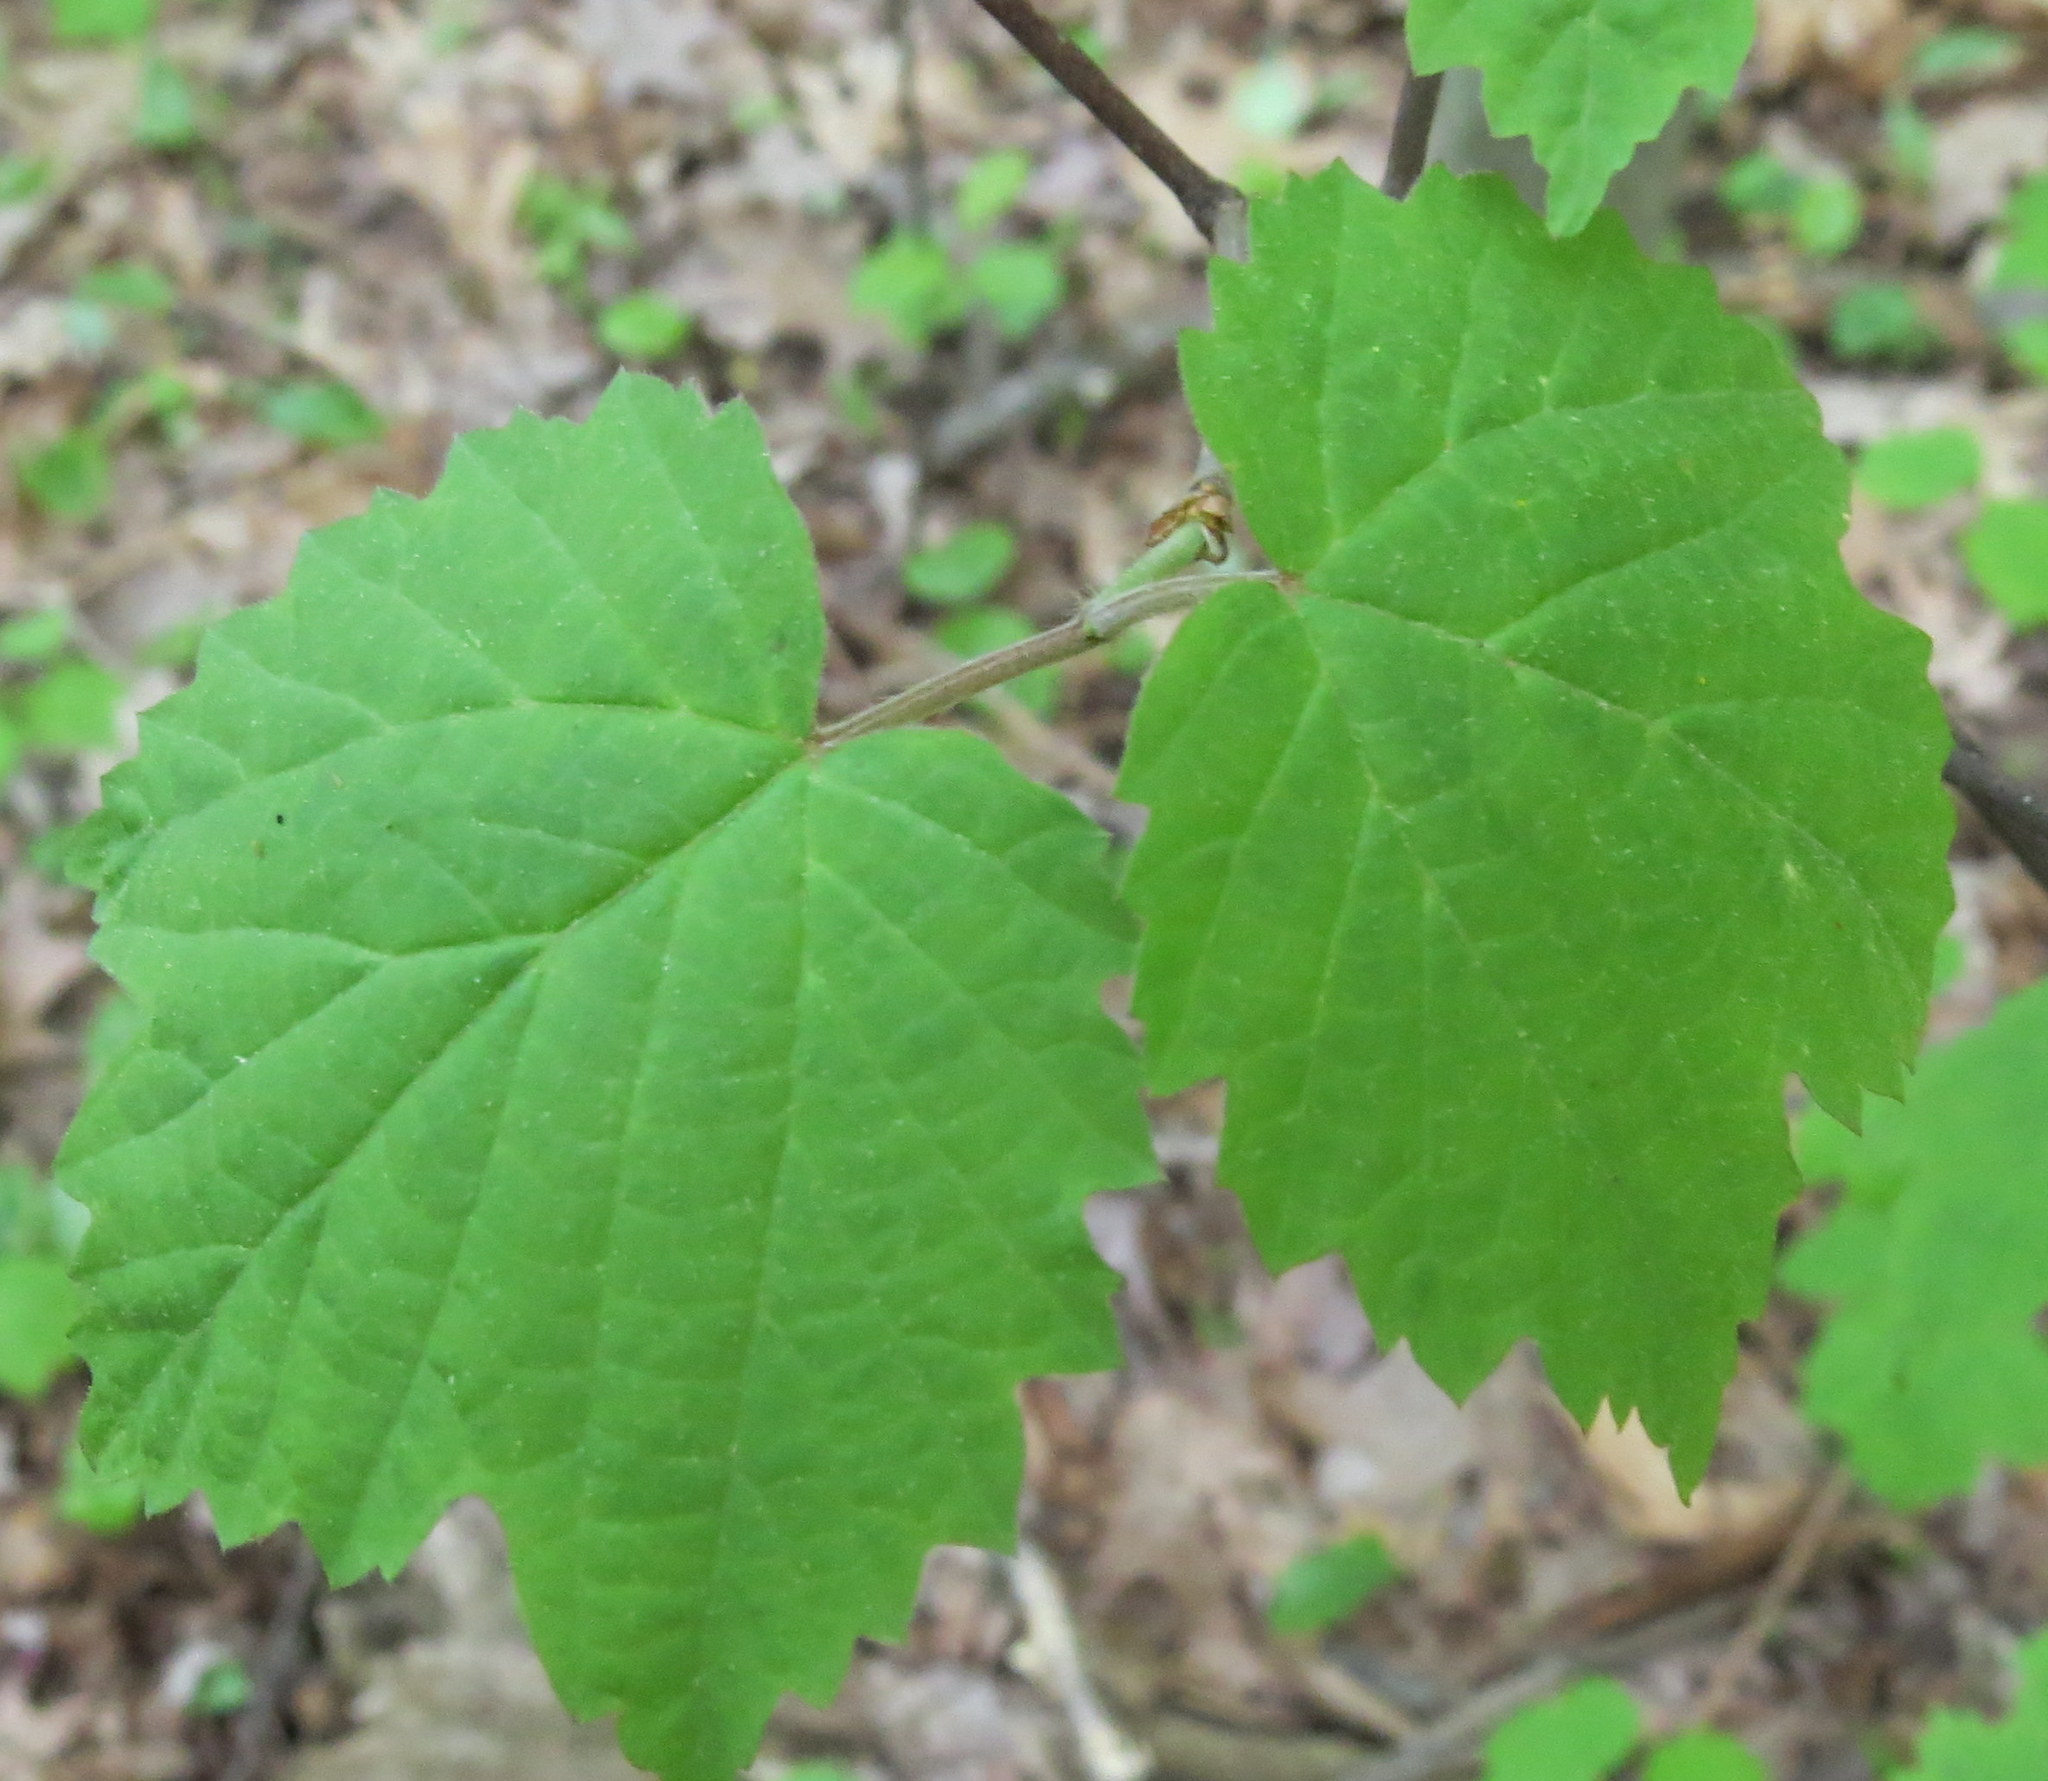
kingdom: Plantae
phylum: Tracheophyta
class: Magnoliopsida
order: Dipsacales
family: Viburnaceae
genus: Viburnum
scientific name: Viburnum acerifolium
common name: Dockmackie
